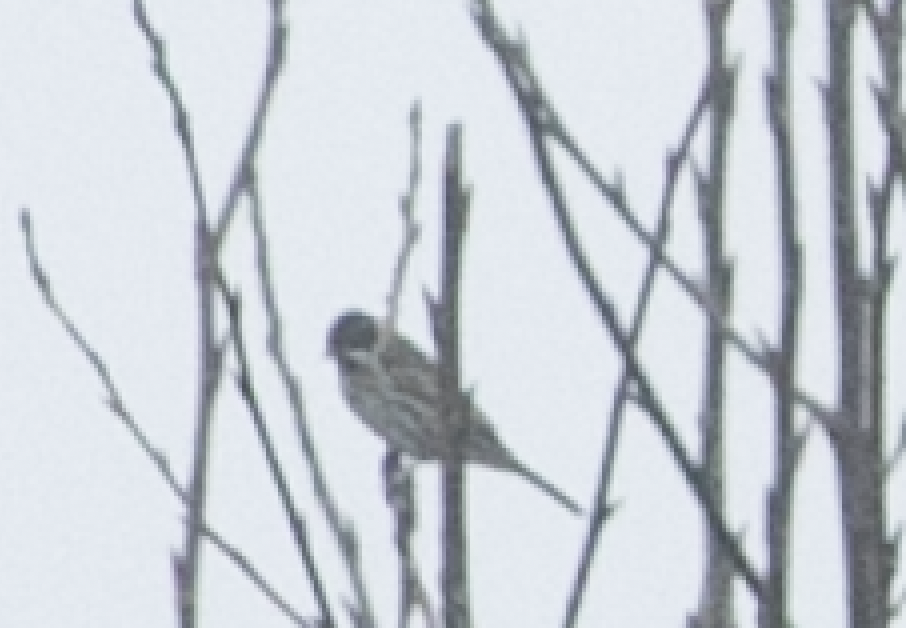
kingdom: Animalia
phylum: Chordata
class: Aves
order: Passeriformes
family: Emberizidae
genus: Emberiza
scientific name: Emberiza schoeniclus
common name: Reed bunting
